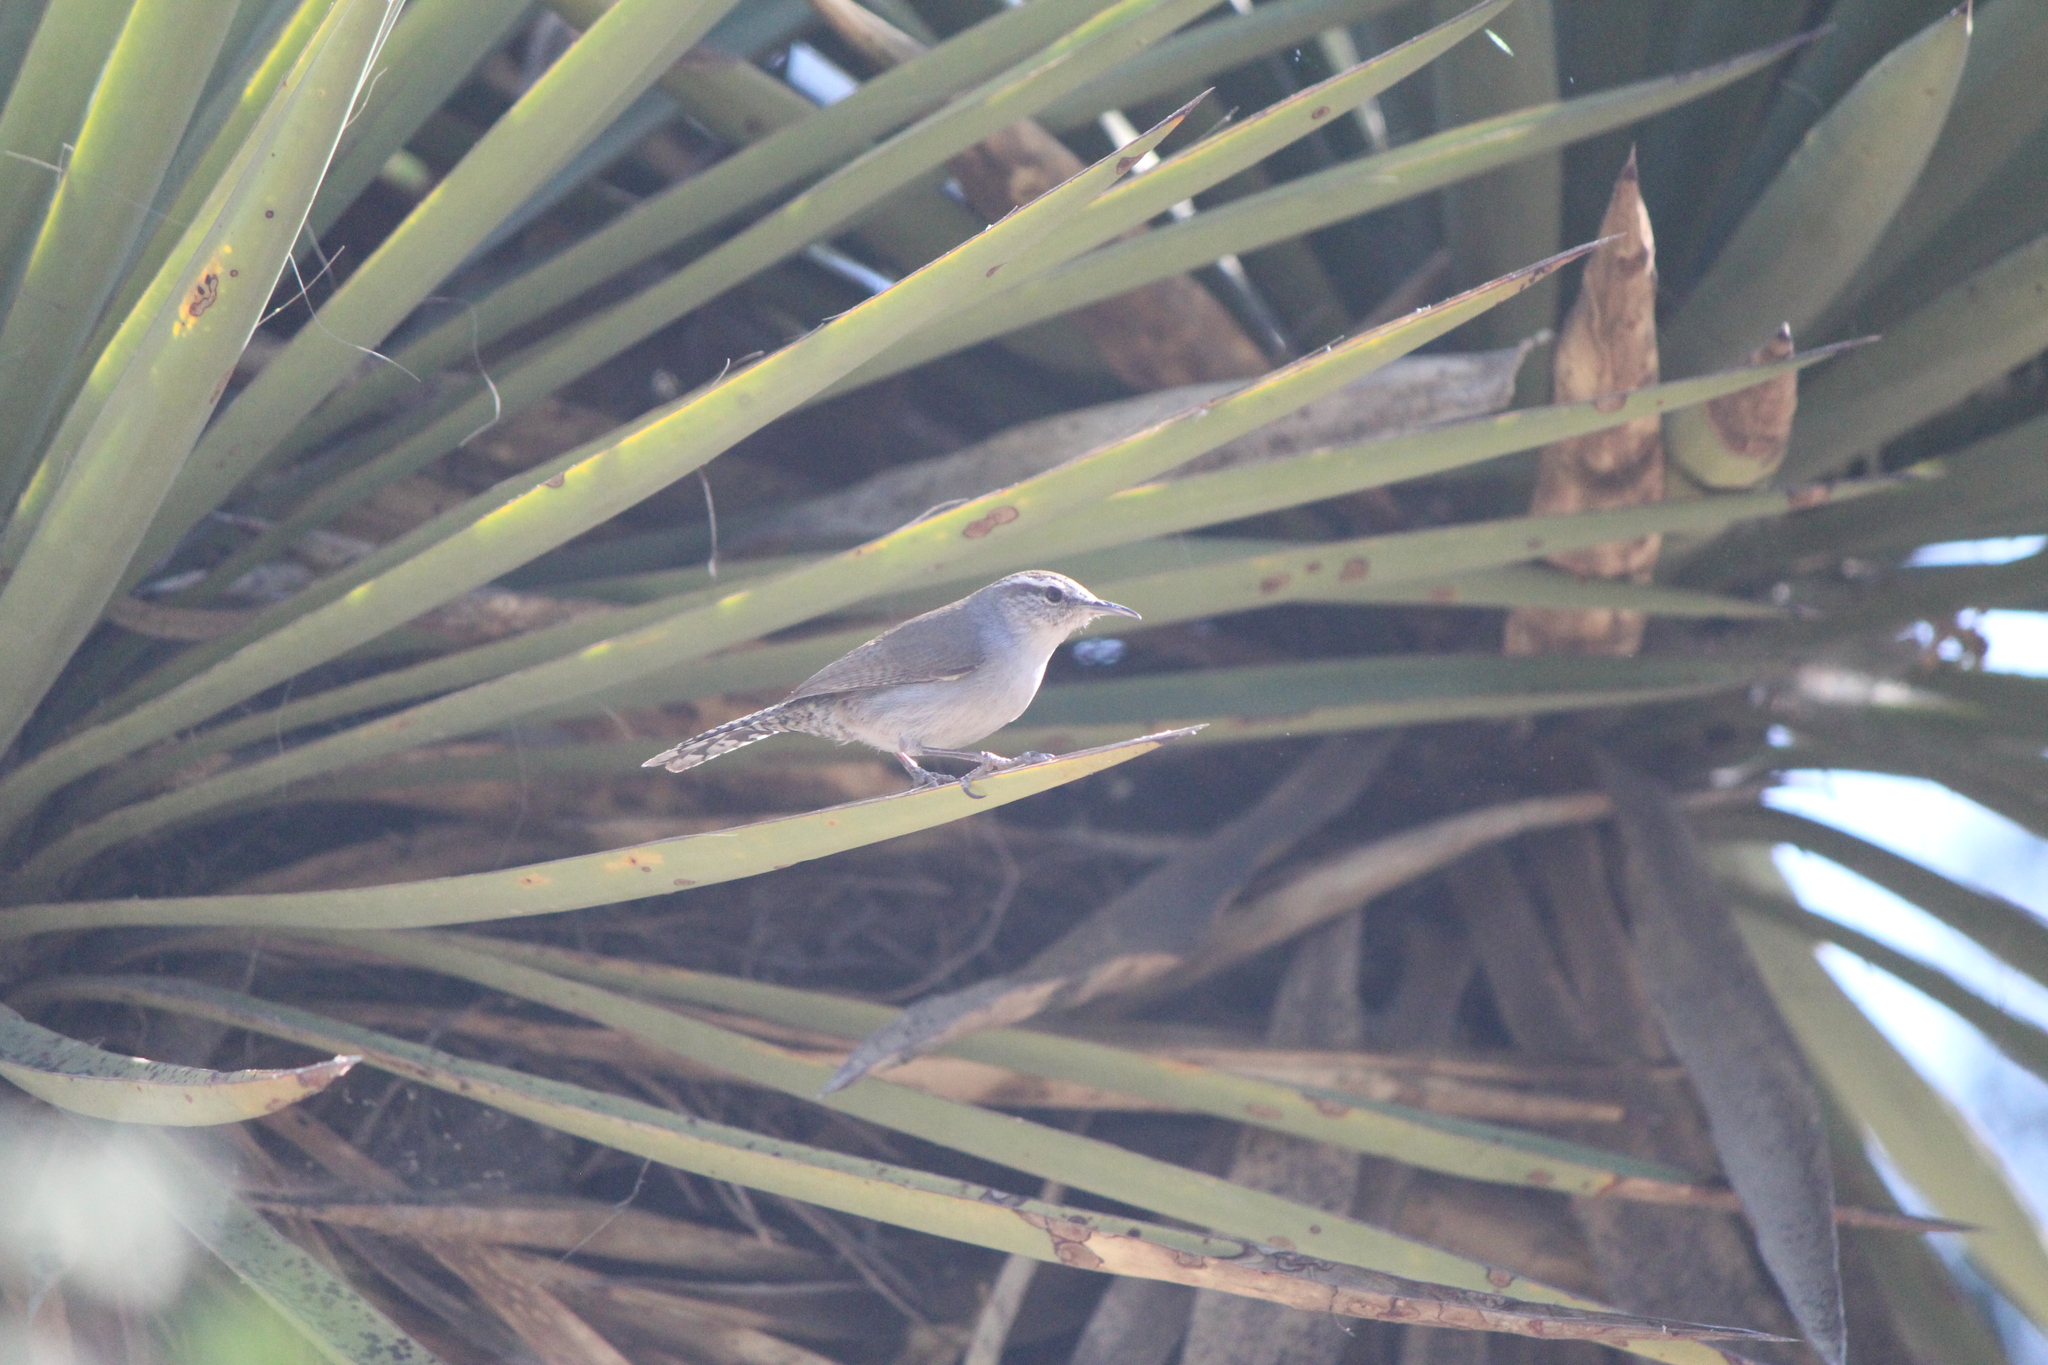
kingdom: Animalia
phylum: Chordata
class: Aves
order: Passeriformes
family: Troglodytidae
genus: Thryomanes
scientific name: Thryomanes bewickii
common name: Bewick's wren
